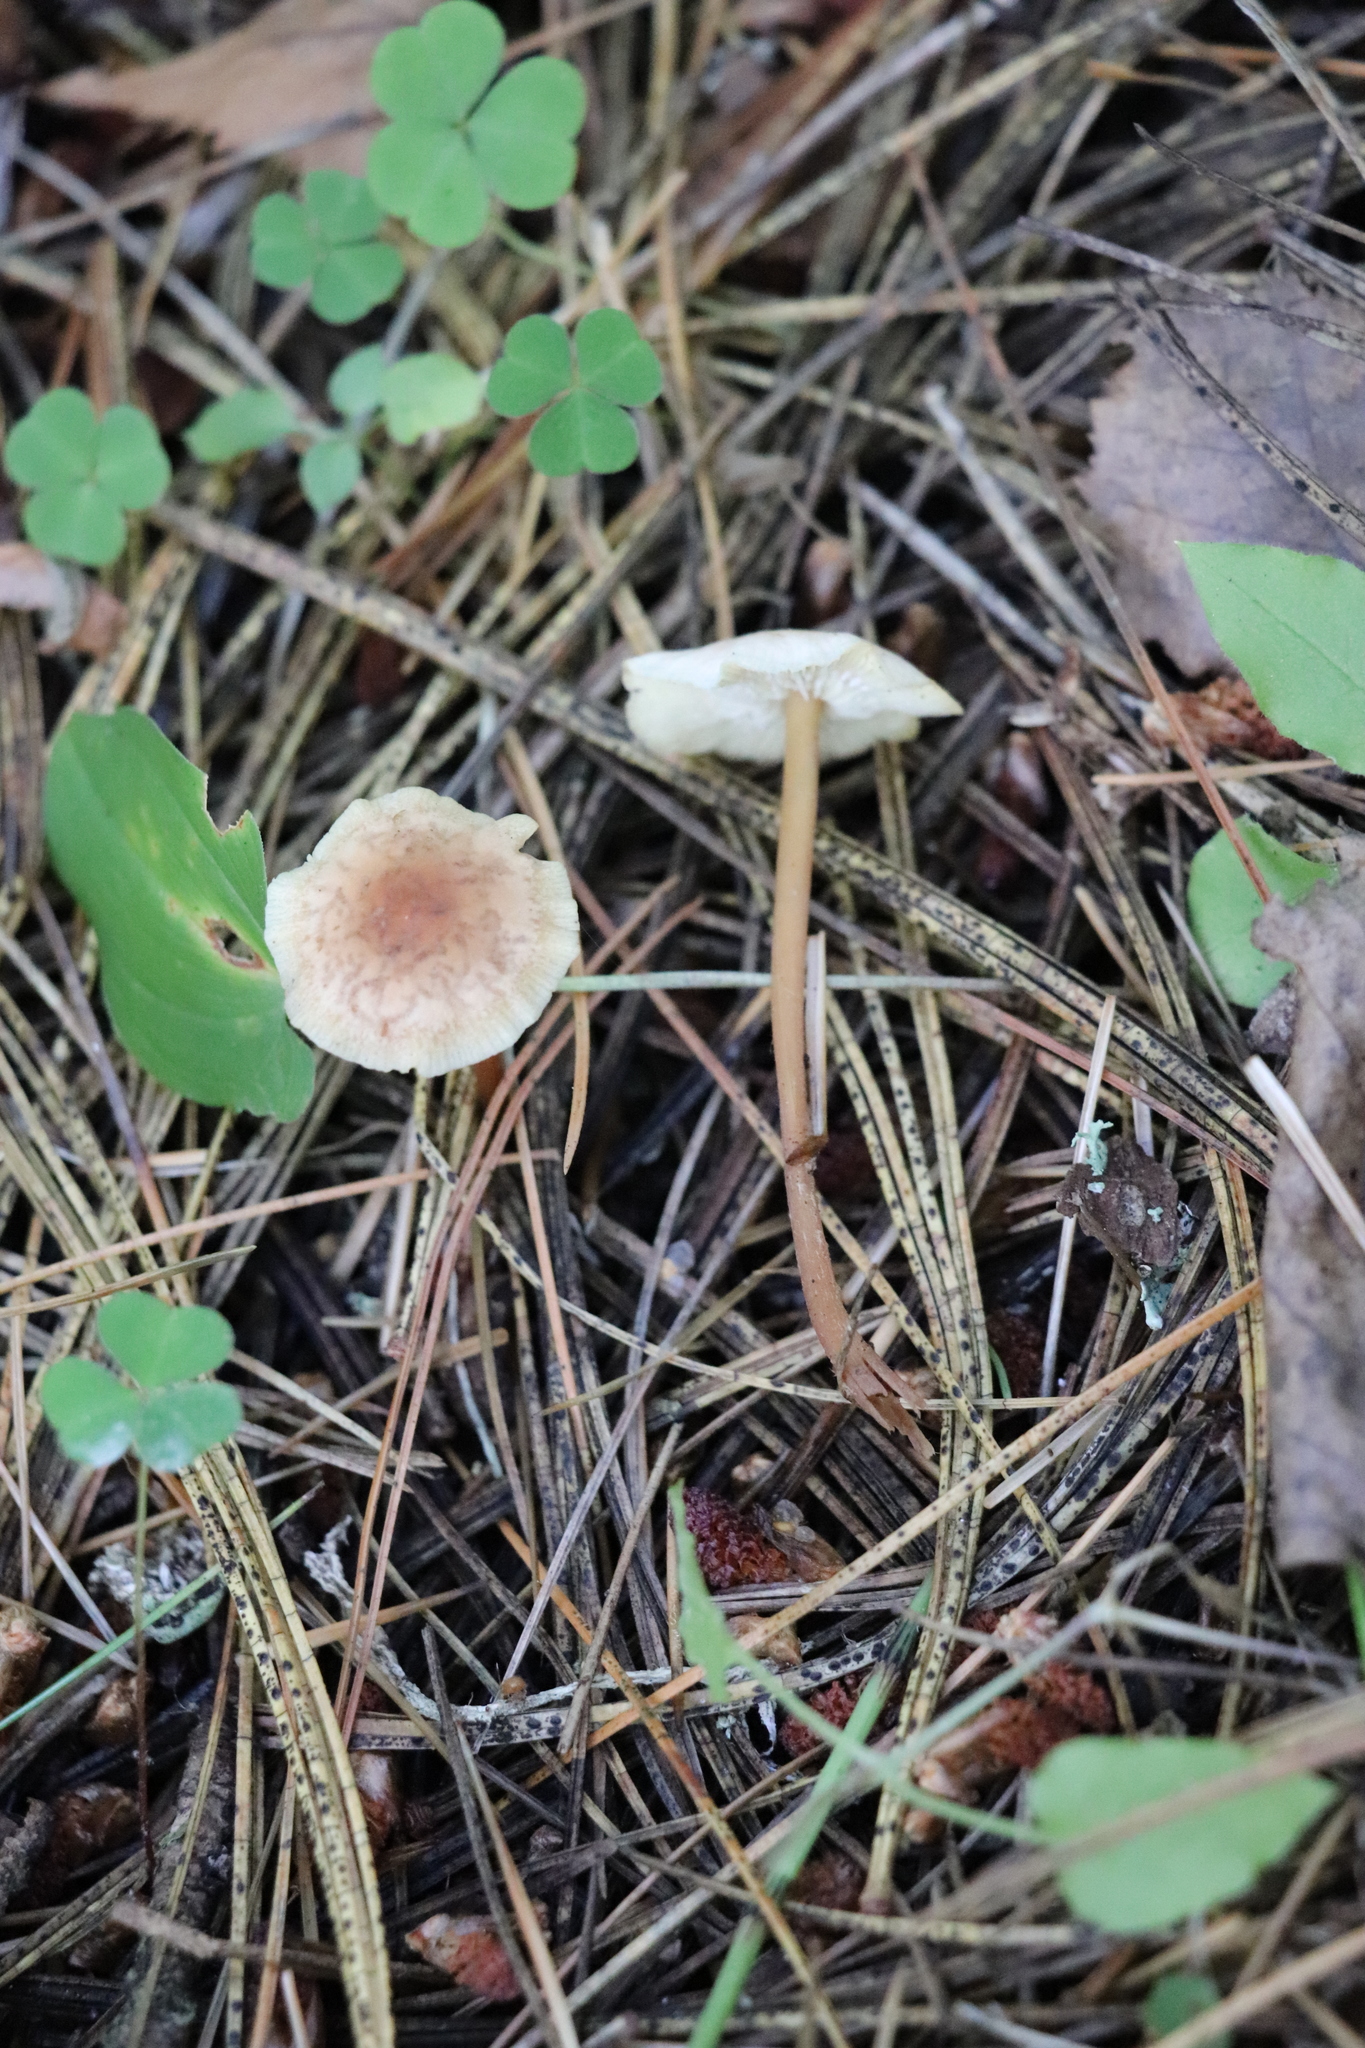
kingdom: Fungi
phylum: Basidiomycota
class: Agaricomycetes
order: Agaricales
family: Omphalotaceae
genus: Gymnopus
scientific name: Gymnopus dryophilus
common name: Penny top
